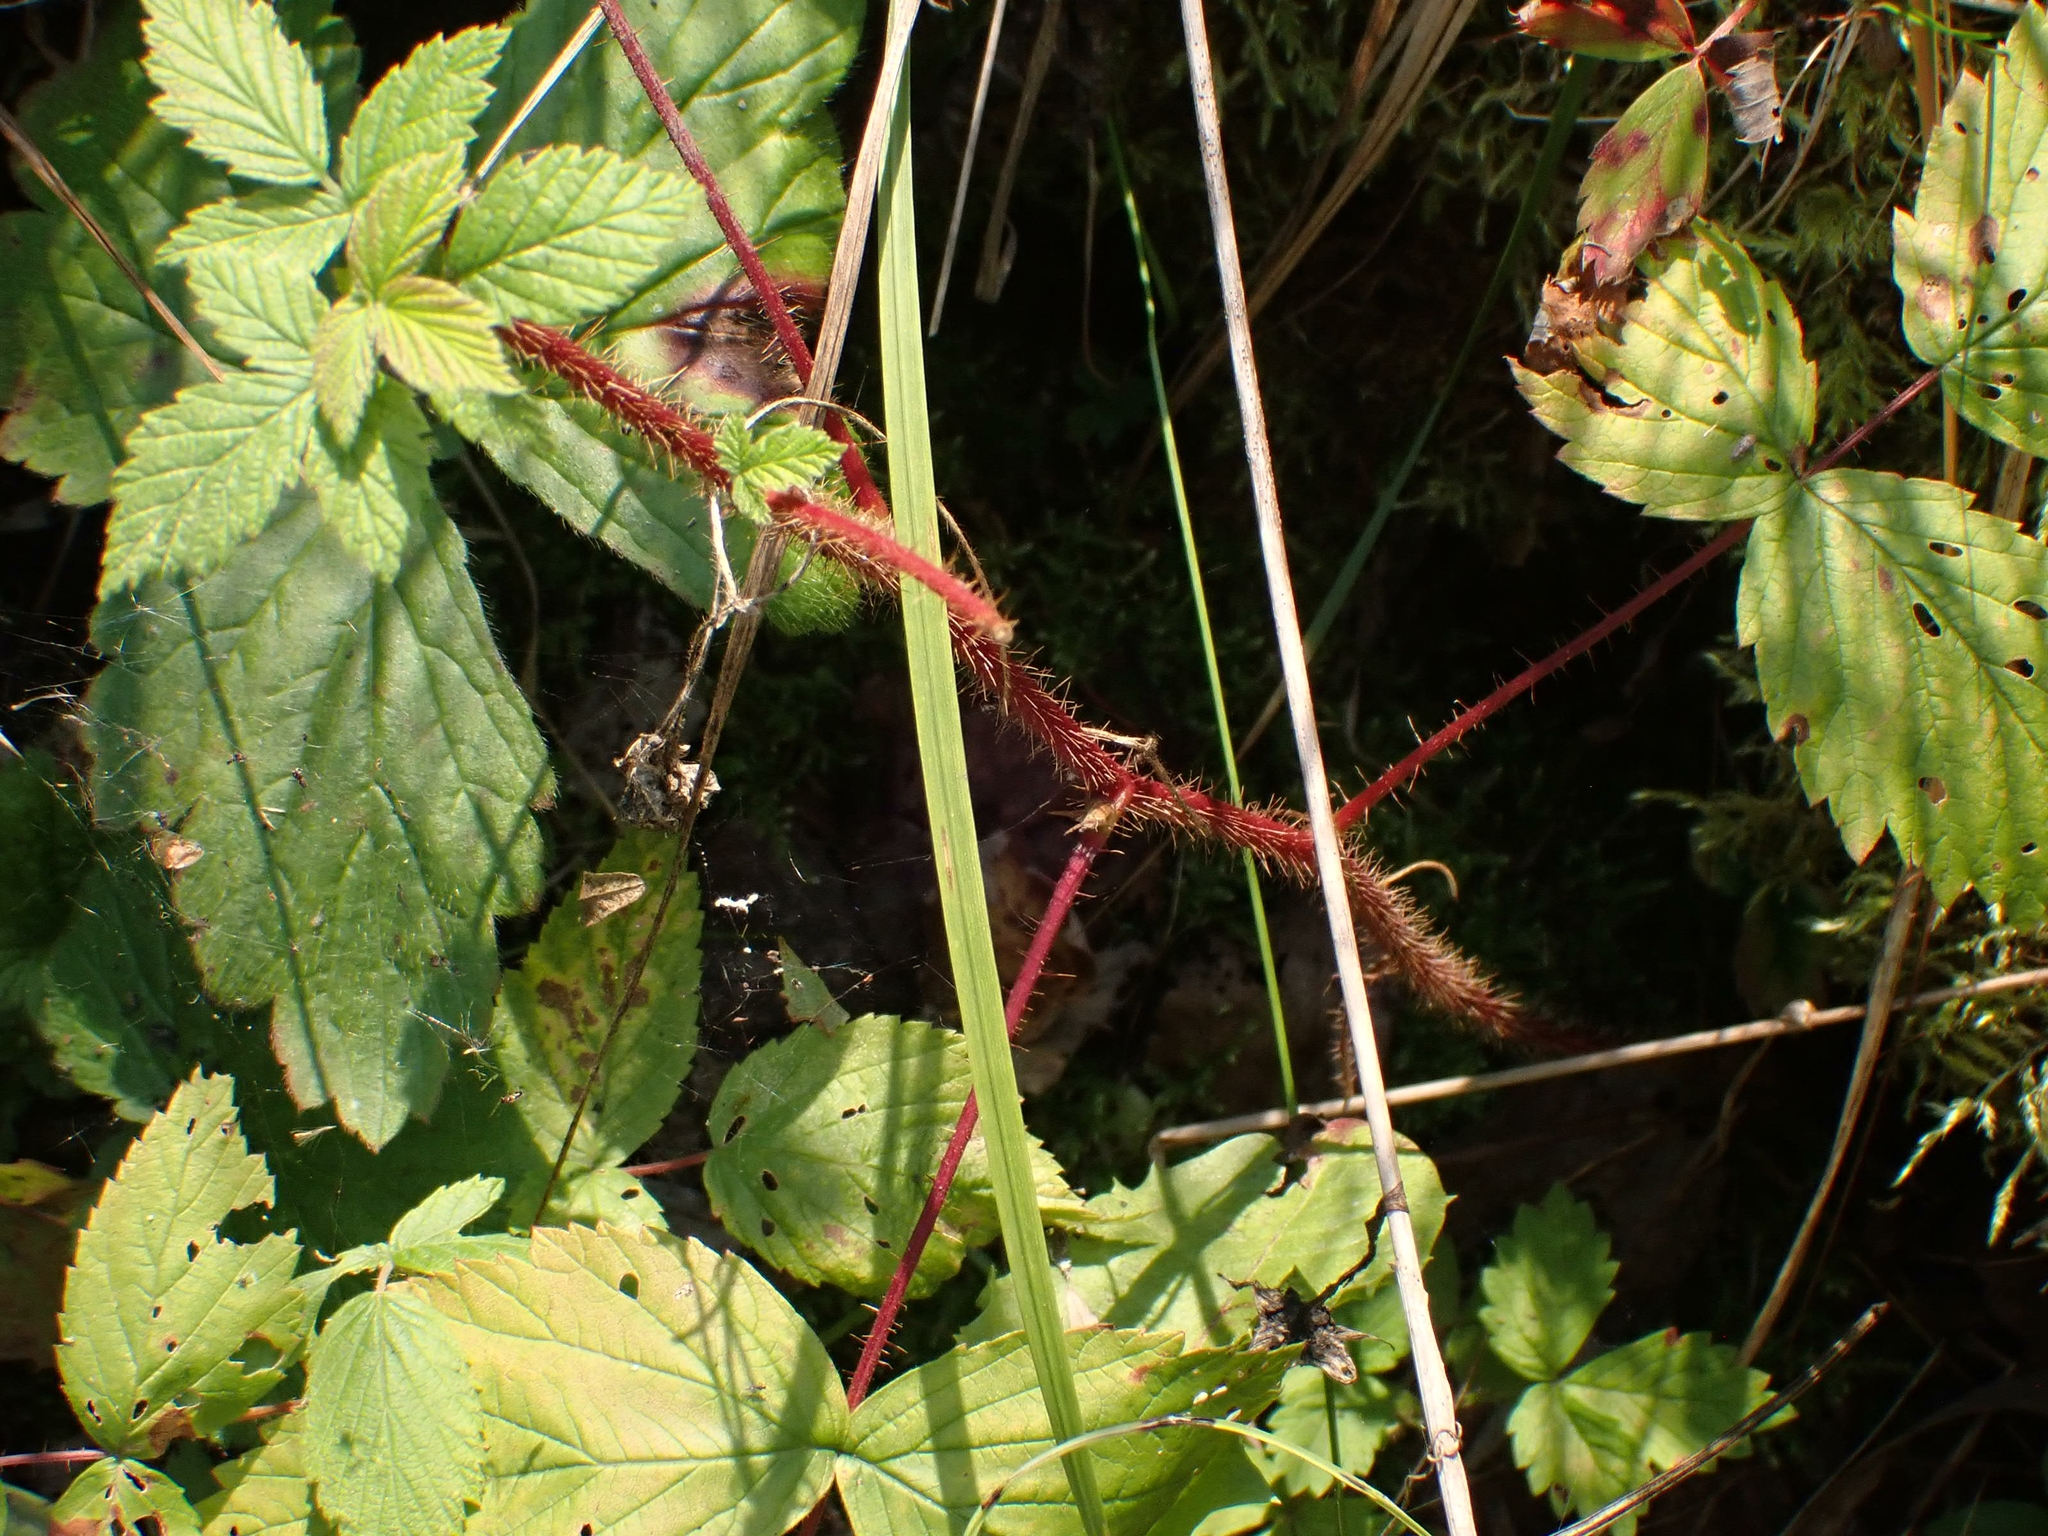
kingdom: Plantae
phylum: Tracheophyta
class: Magnoliopsida
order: Rosales
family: Rosaceae
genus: Rubus
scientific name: Rubus idaeus
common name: Raspberry
